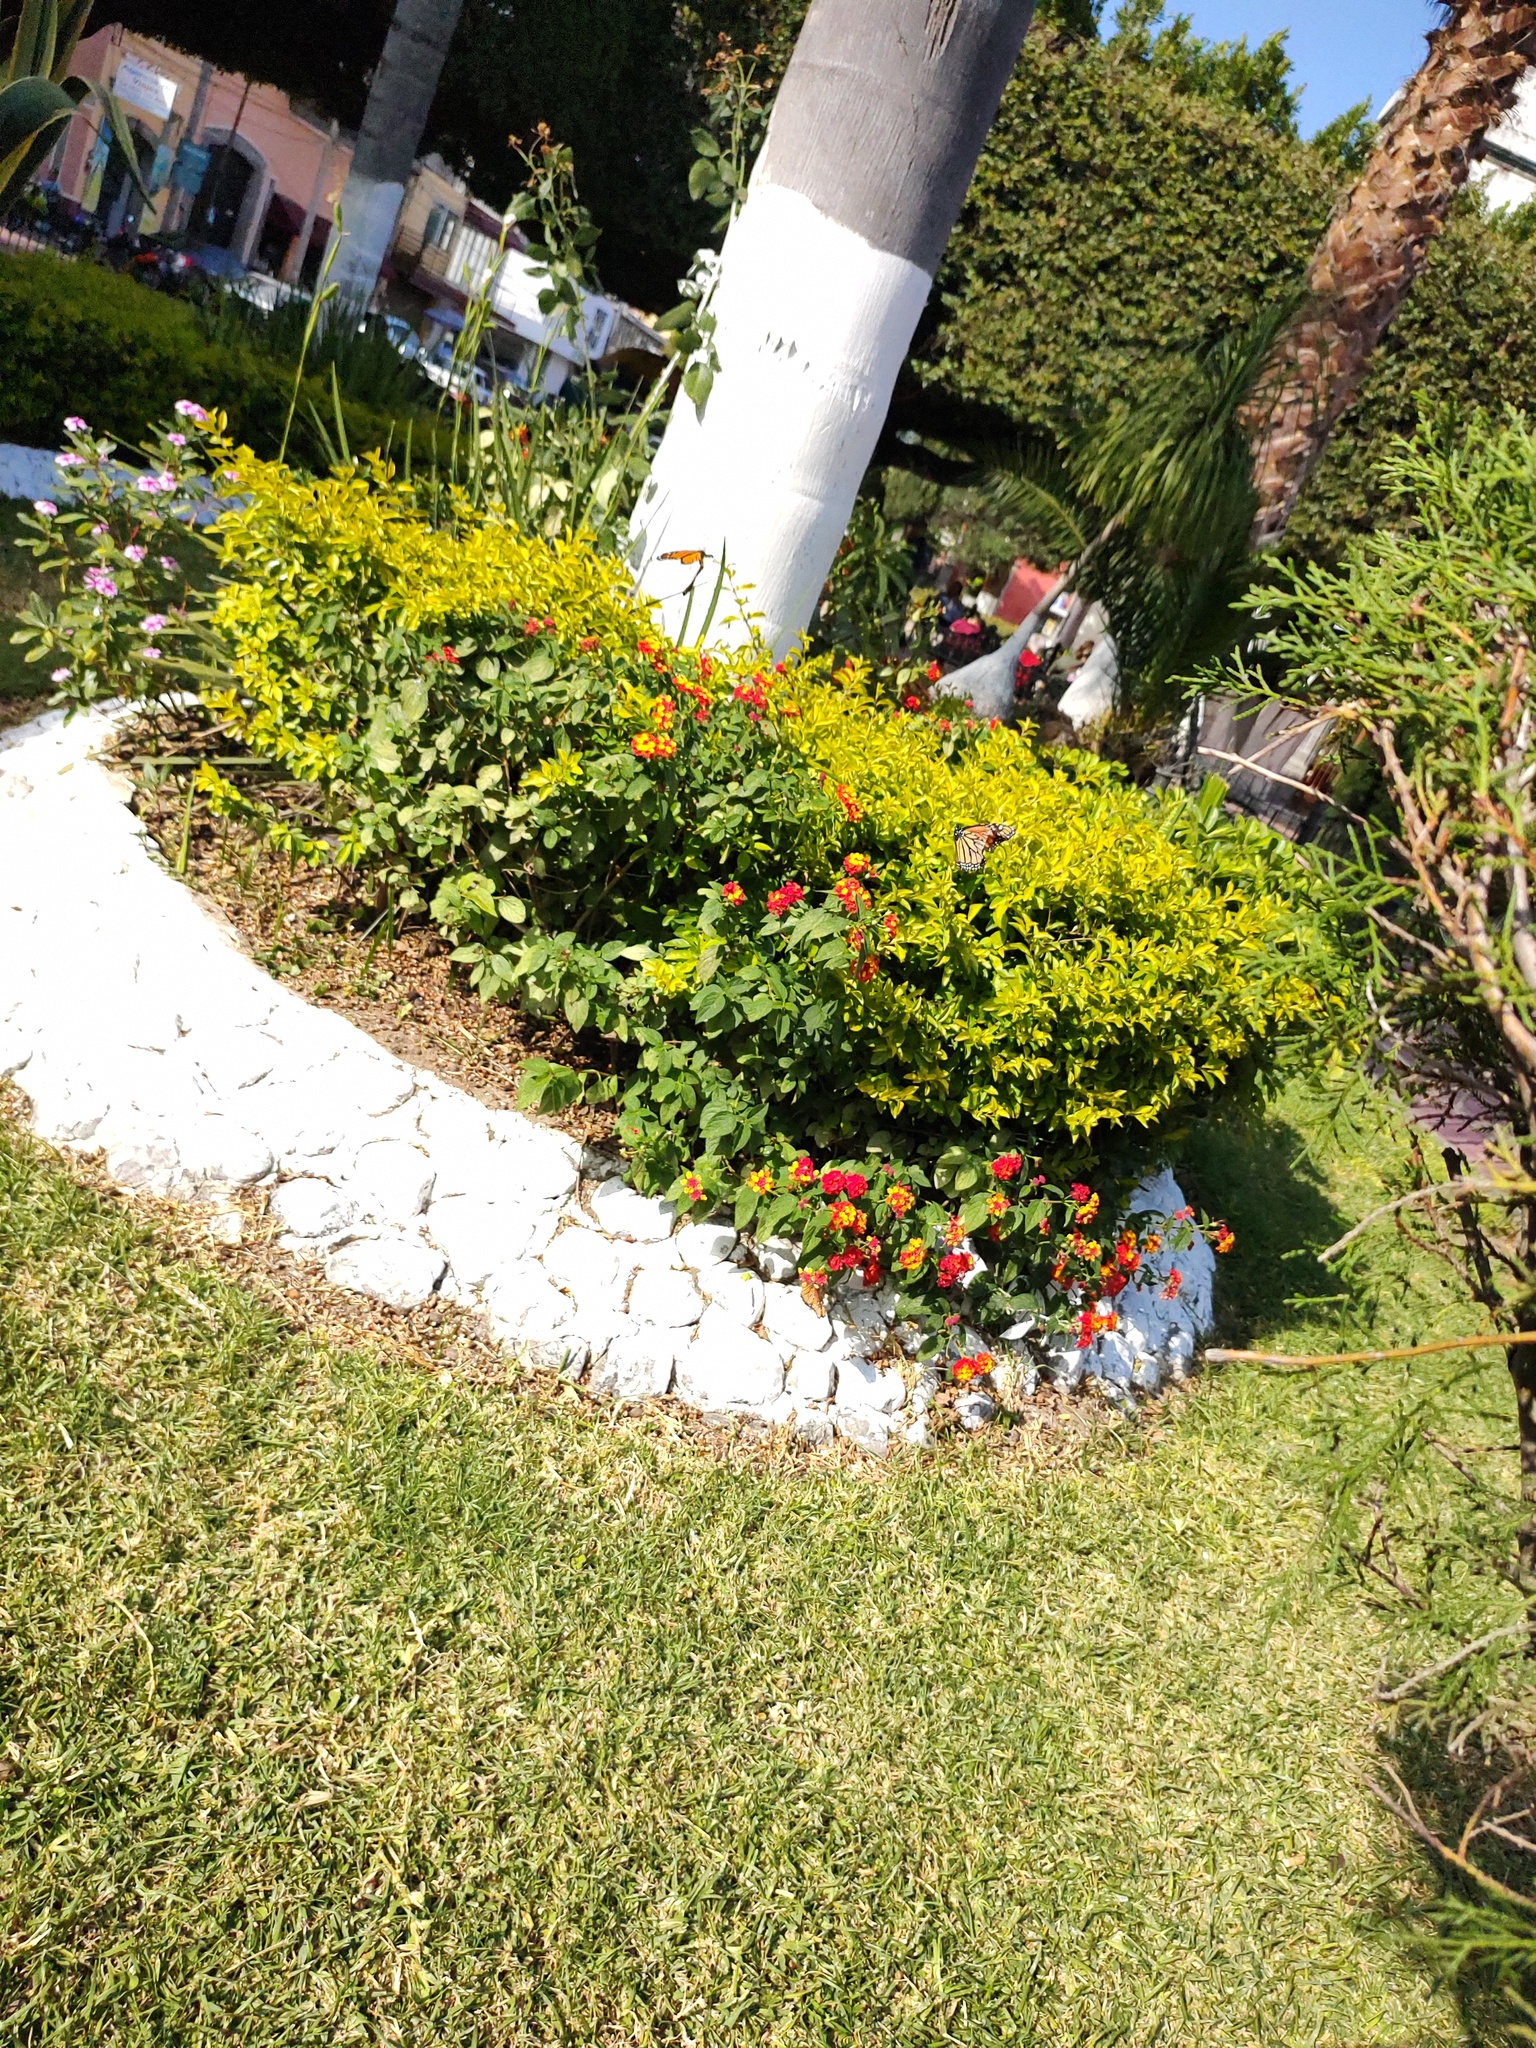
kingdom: Animalia
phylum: Arthropoda
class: Insecta
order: Lepidoptera
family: Nymphalidae
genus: Danaus
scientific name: Danaus plexippus
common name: Monarch
